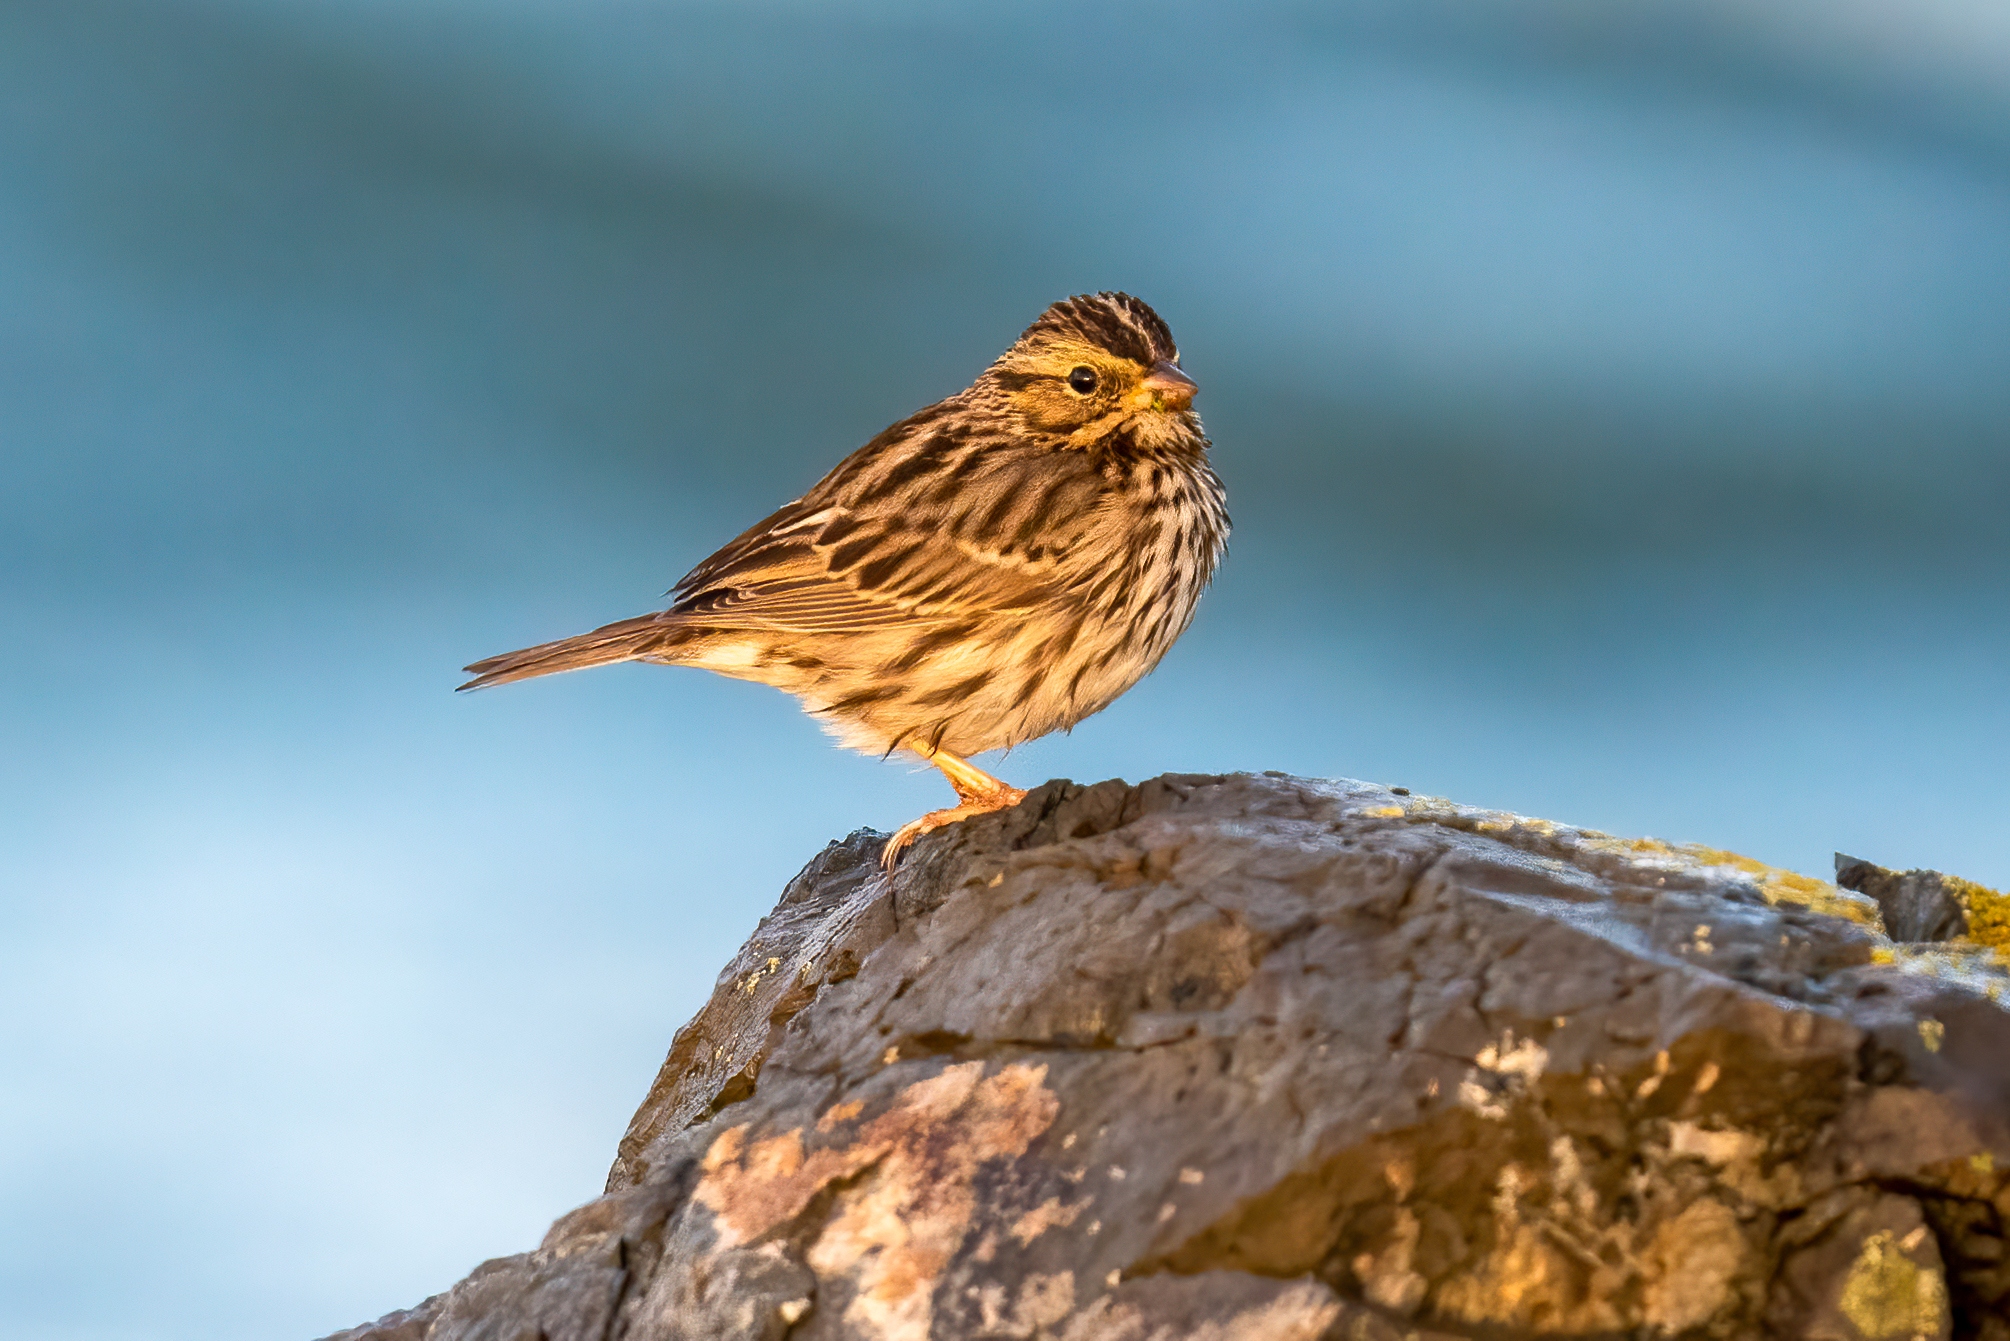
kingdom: Animalia
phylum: Chordata
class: Aves
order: Passeriformes
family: Passerellidae
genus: Passerculus
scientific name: Passerculus sandwichensis
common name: Savannah sparrow
